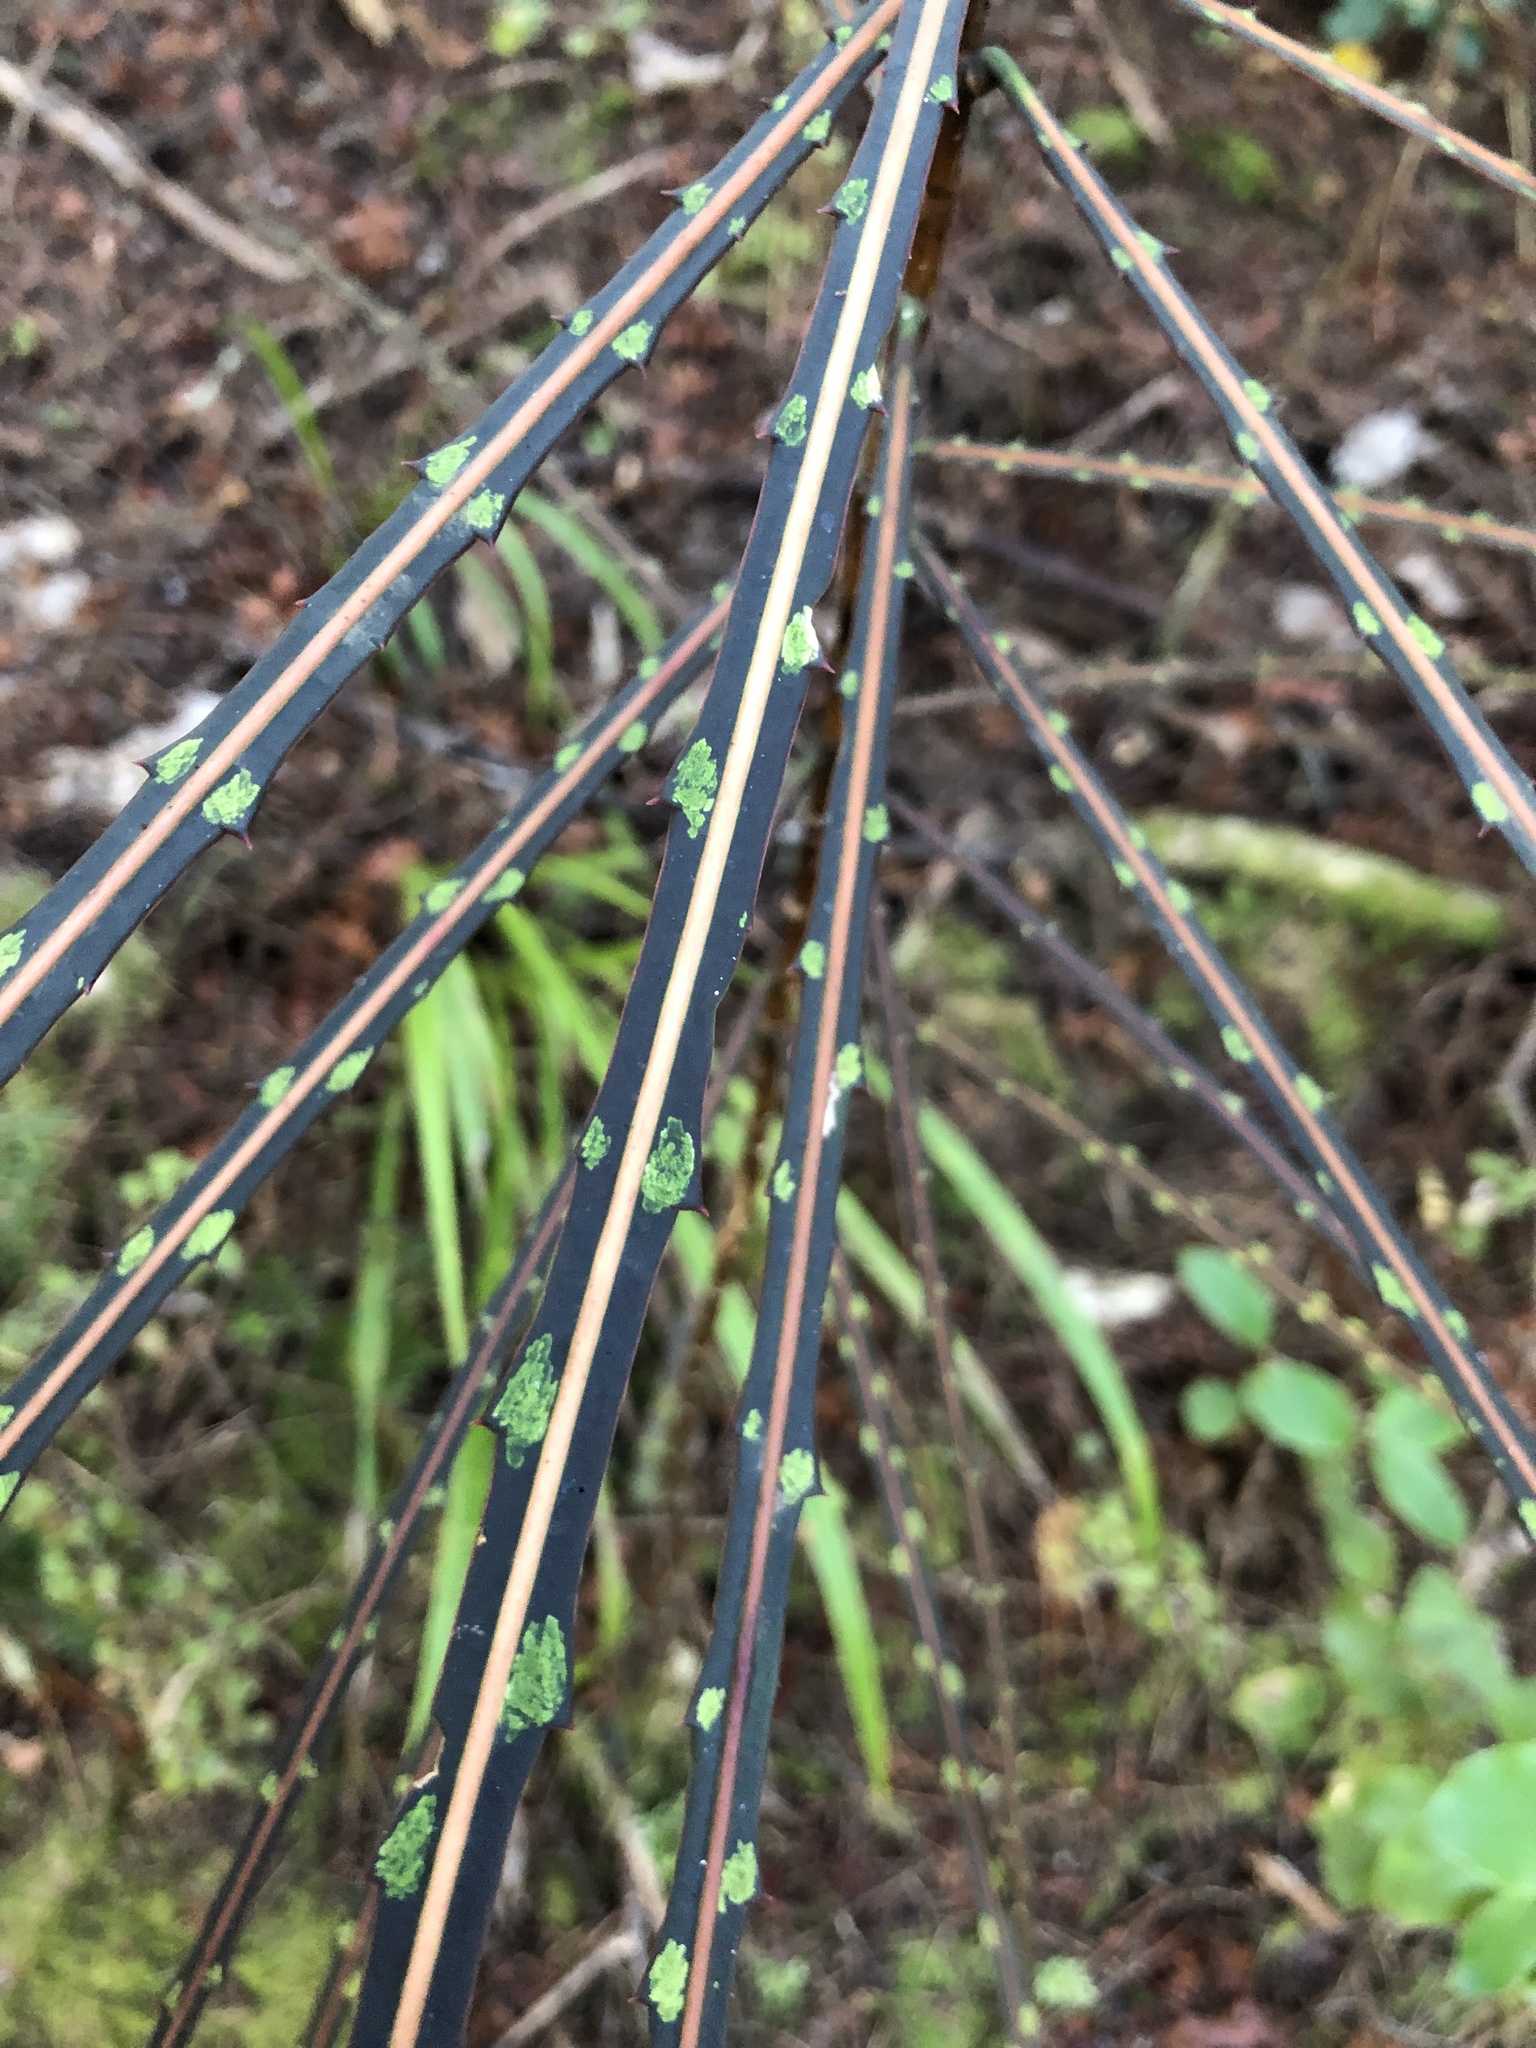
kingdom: Plantae
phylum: Tracheophyta
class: Magnoliopsida
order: Apiales
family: Araliaceae
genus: Pseudopanax
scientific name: Pseudopanax crassifolius
